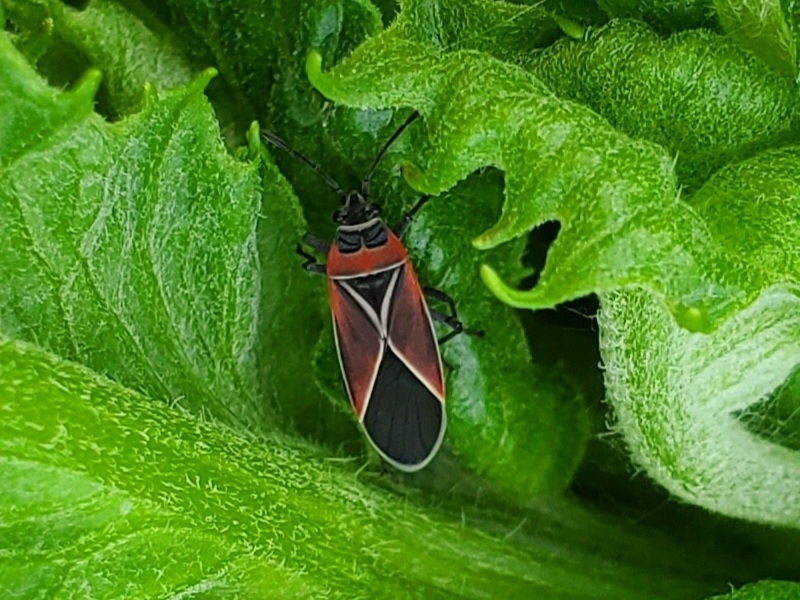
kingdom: Animalia
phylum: Arthropoda
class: Insecta
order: Hemiptera
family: Lygaeidae
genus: Neacoryphus
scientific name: Neacoryphus bicrucis
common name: Lygaeid bug
